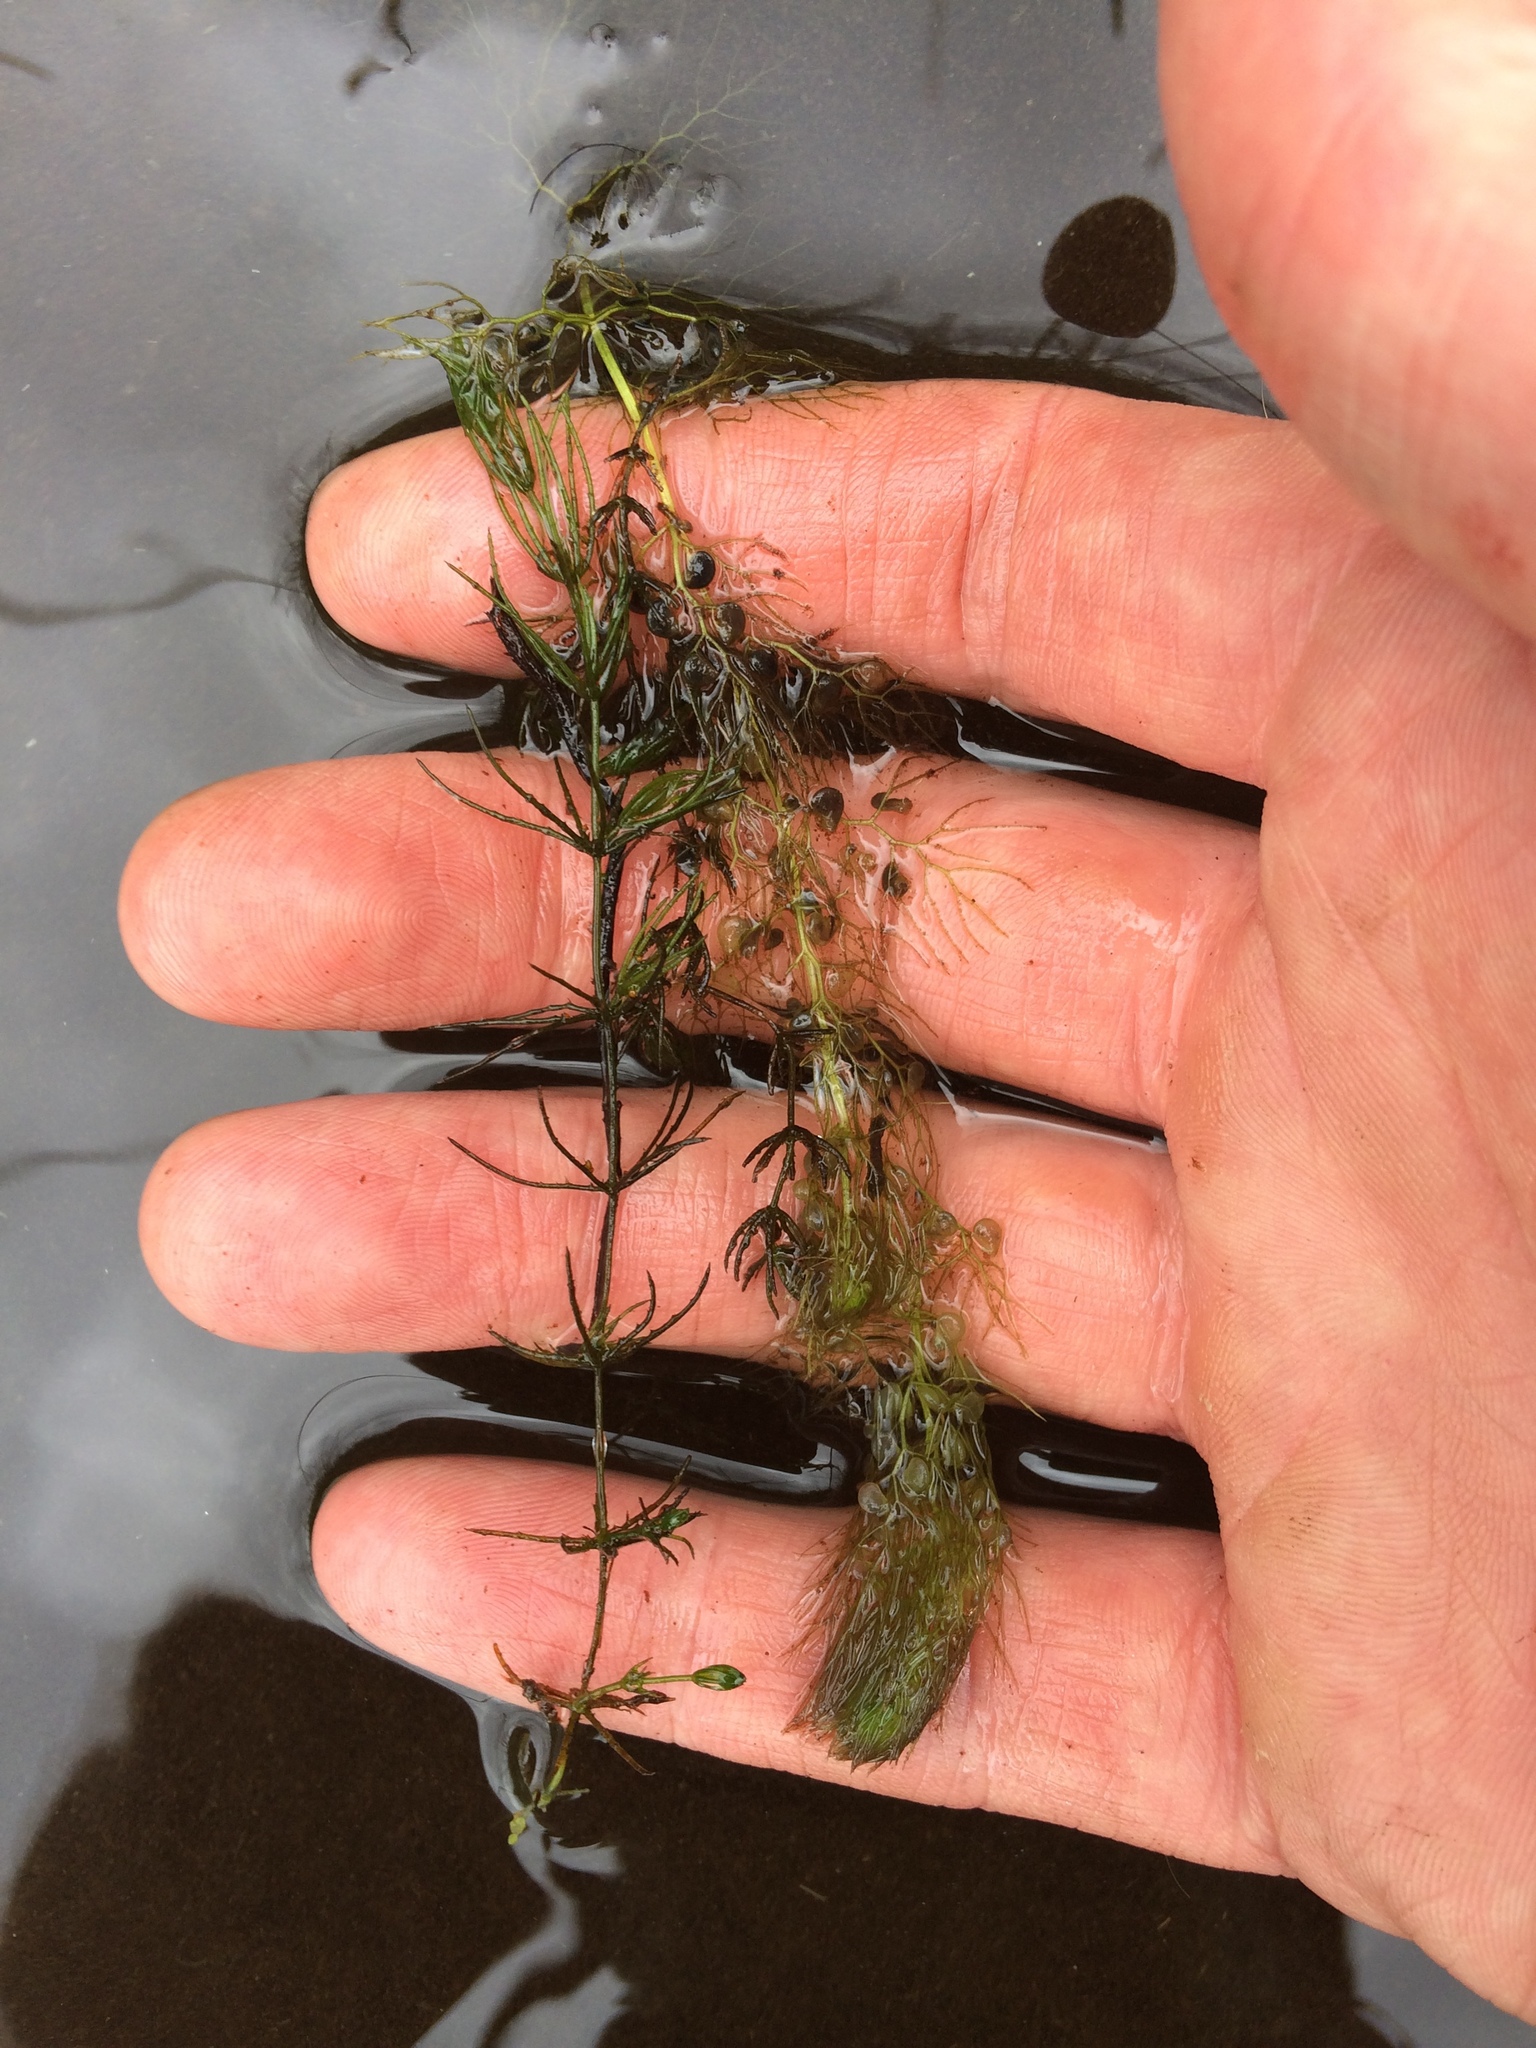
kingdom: Plantae
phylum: Tracheophyta
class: Magnoliopsida
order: Lamiales
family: Lentibulariaceae
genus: Utricularia
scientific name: Utricularia macrorhiza
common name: Common bladderwort
